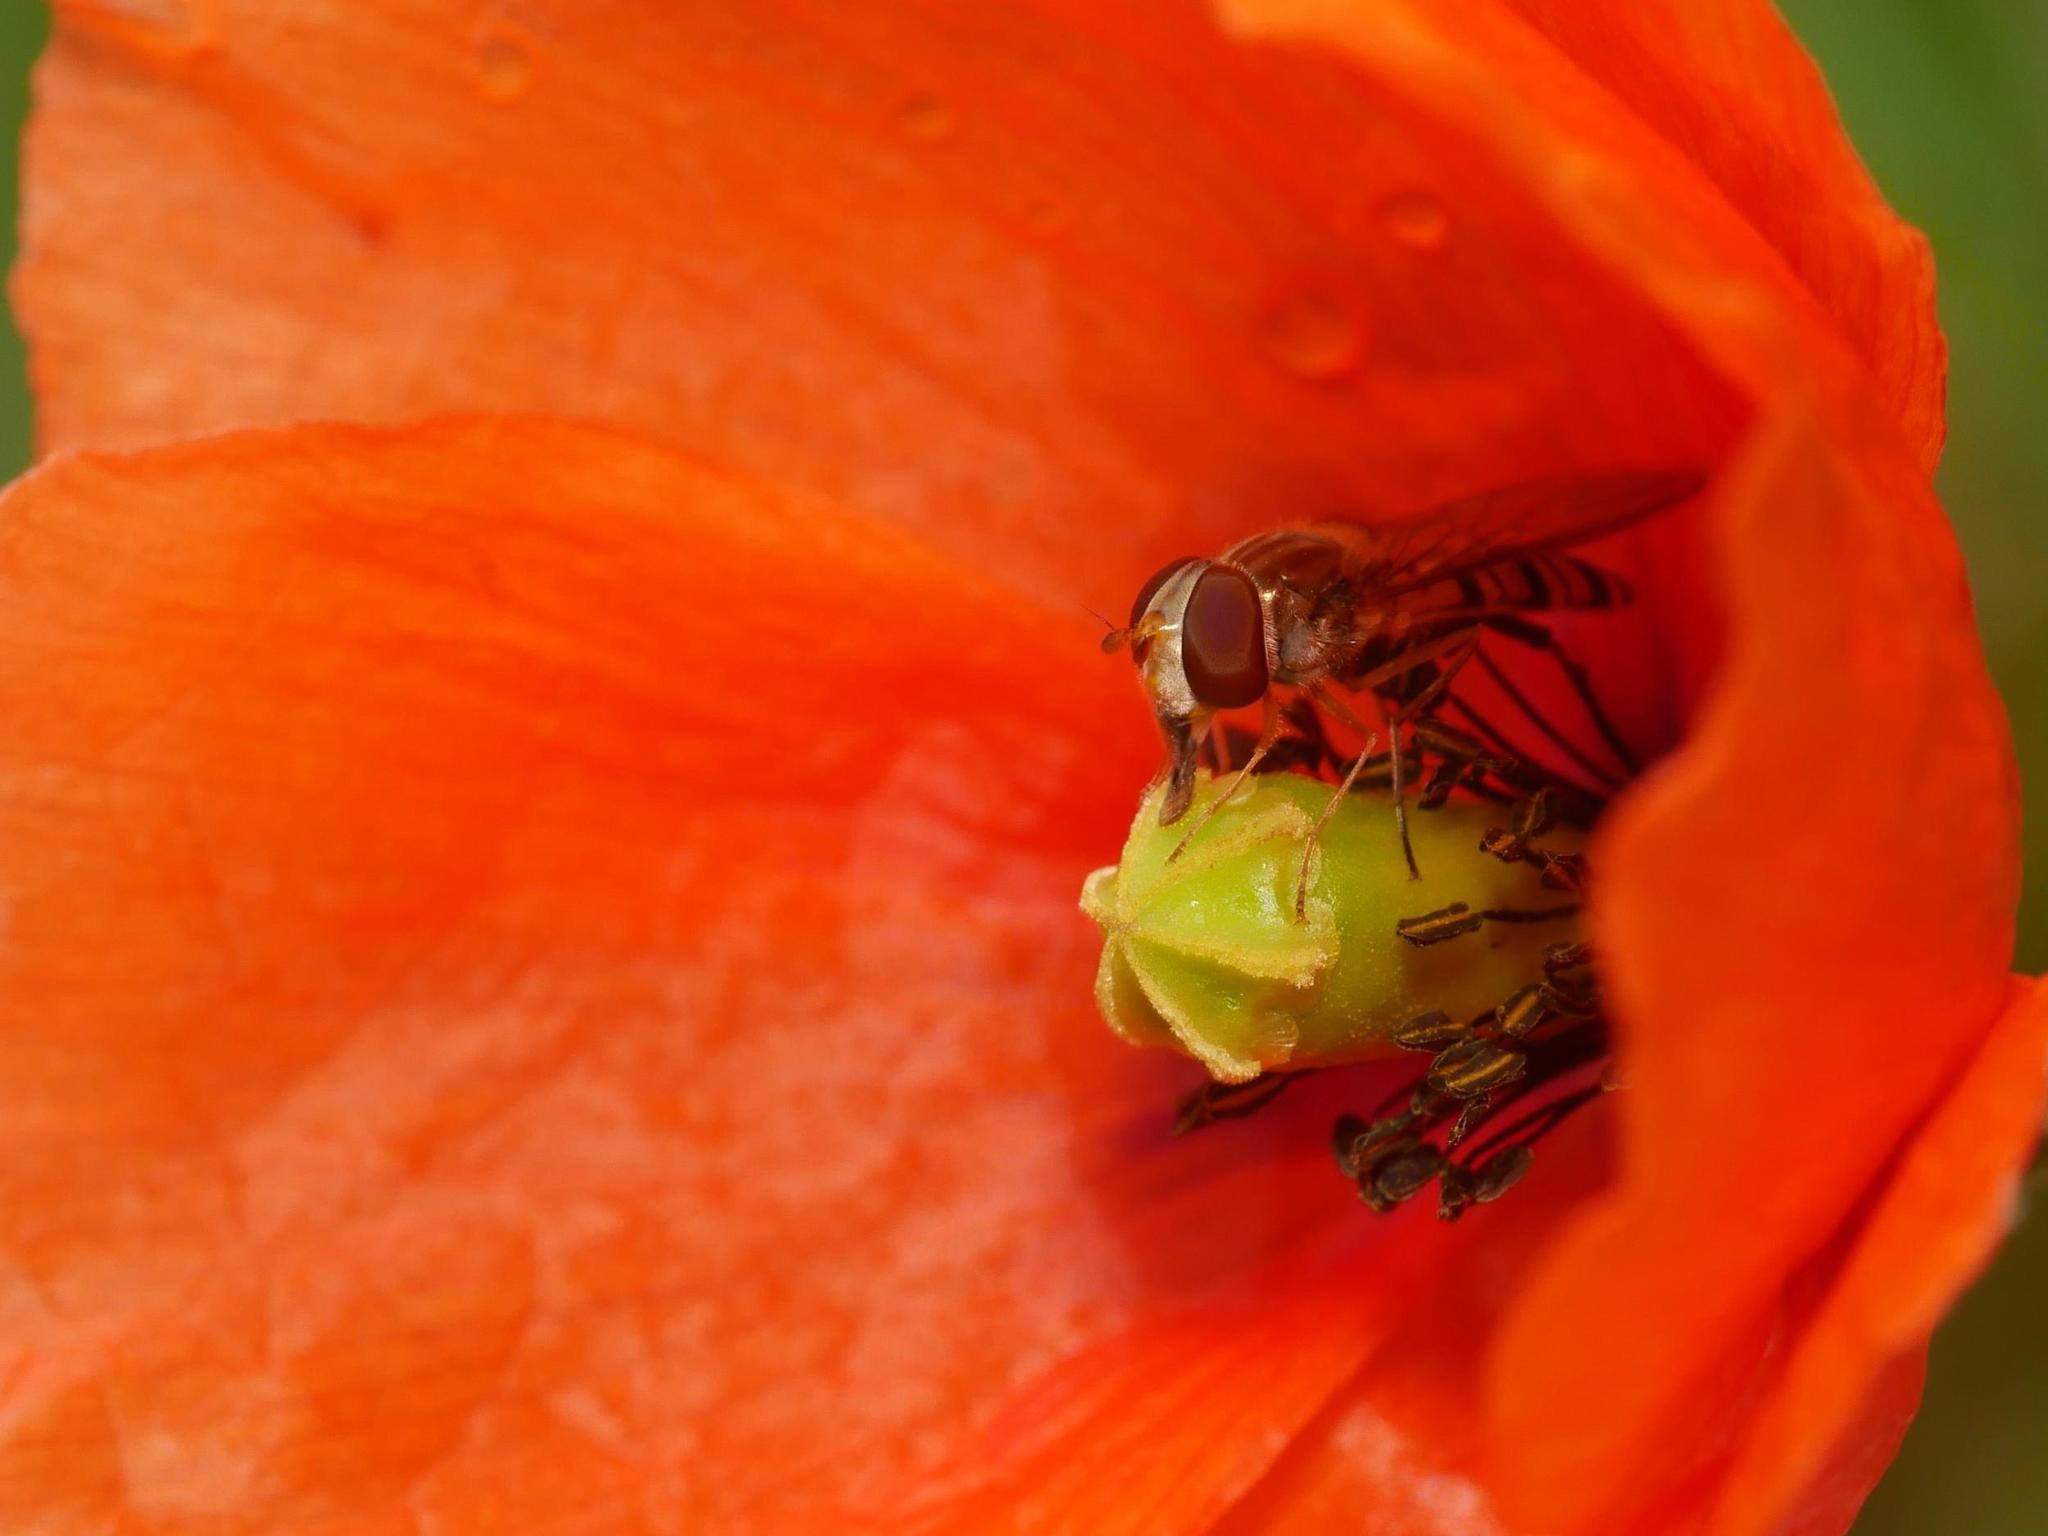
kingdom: Animalia
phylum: Arthropoda
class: Insecta
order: Diptera
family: Syrphidae
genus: Episyrphus
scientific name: Episyrphus balteatus
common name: Marmalade hoverfly
